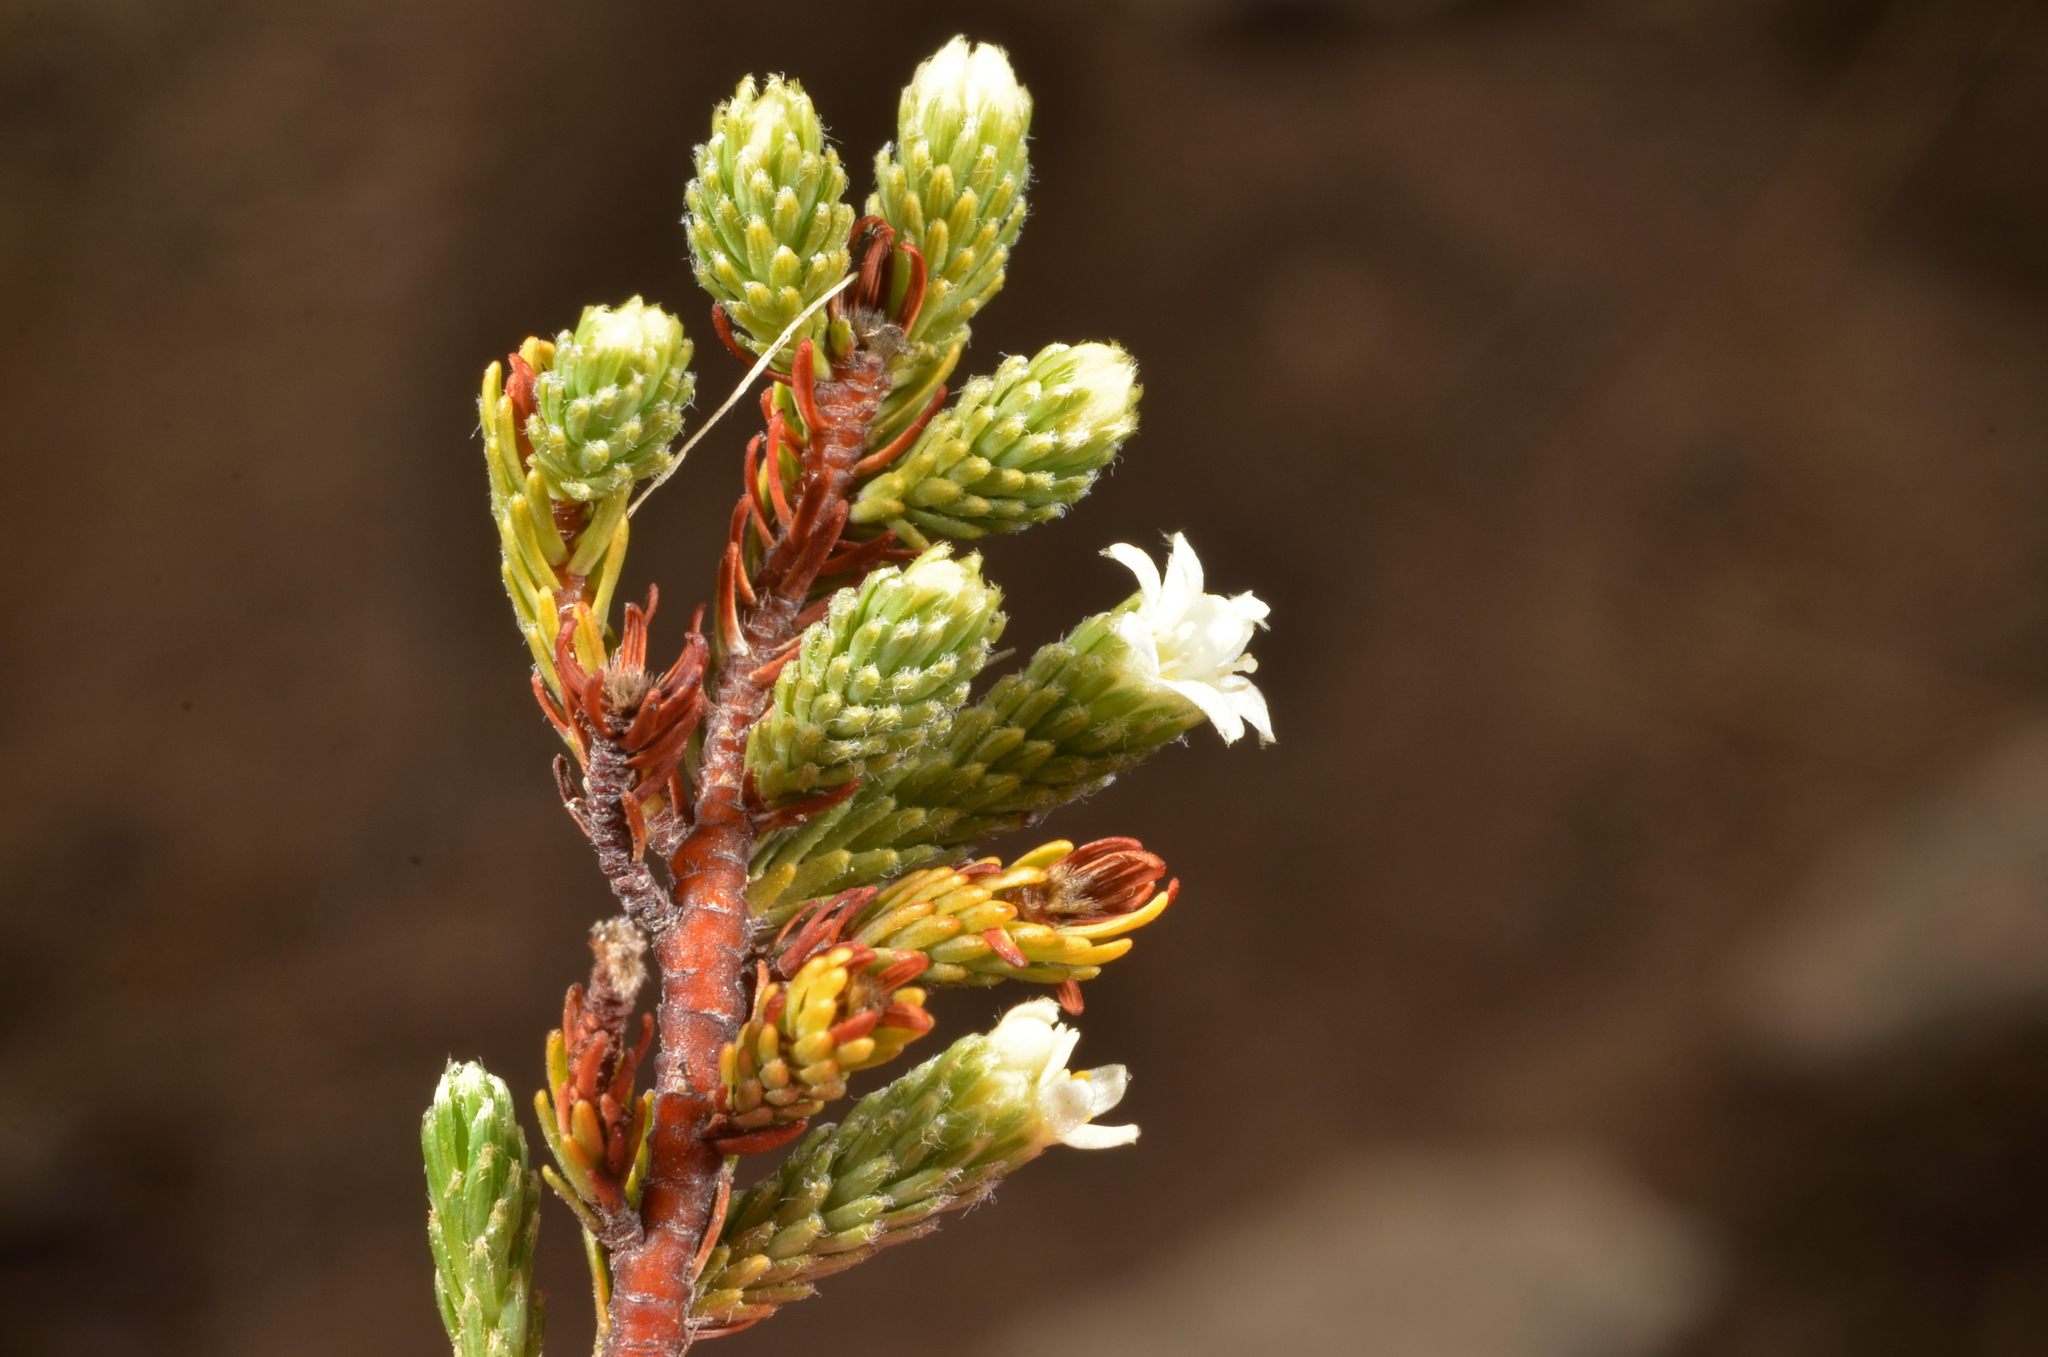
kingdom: Plantae
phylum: Tracheophyta
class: Magnoliopsida
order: Malvales
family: Thymelaeaceae
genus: Kelleria
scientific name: Kelleria villosa
